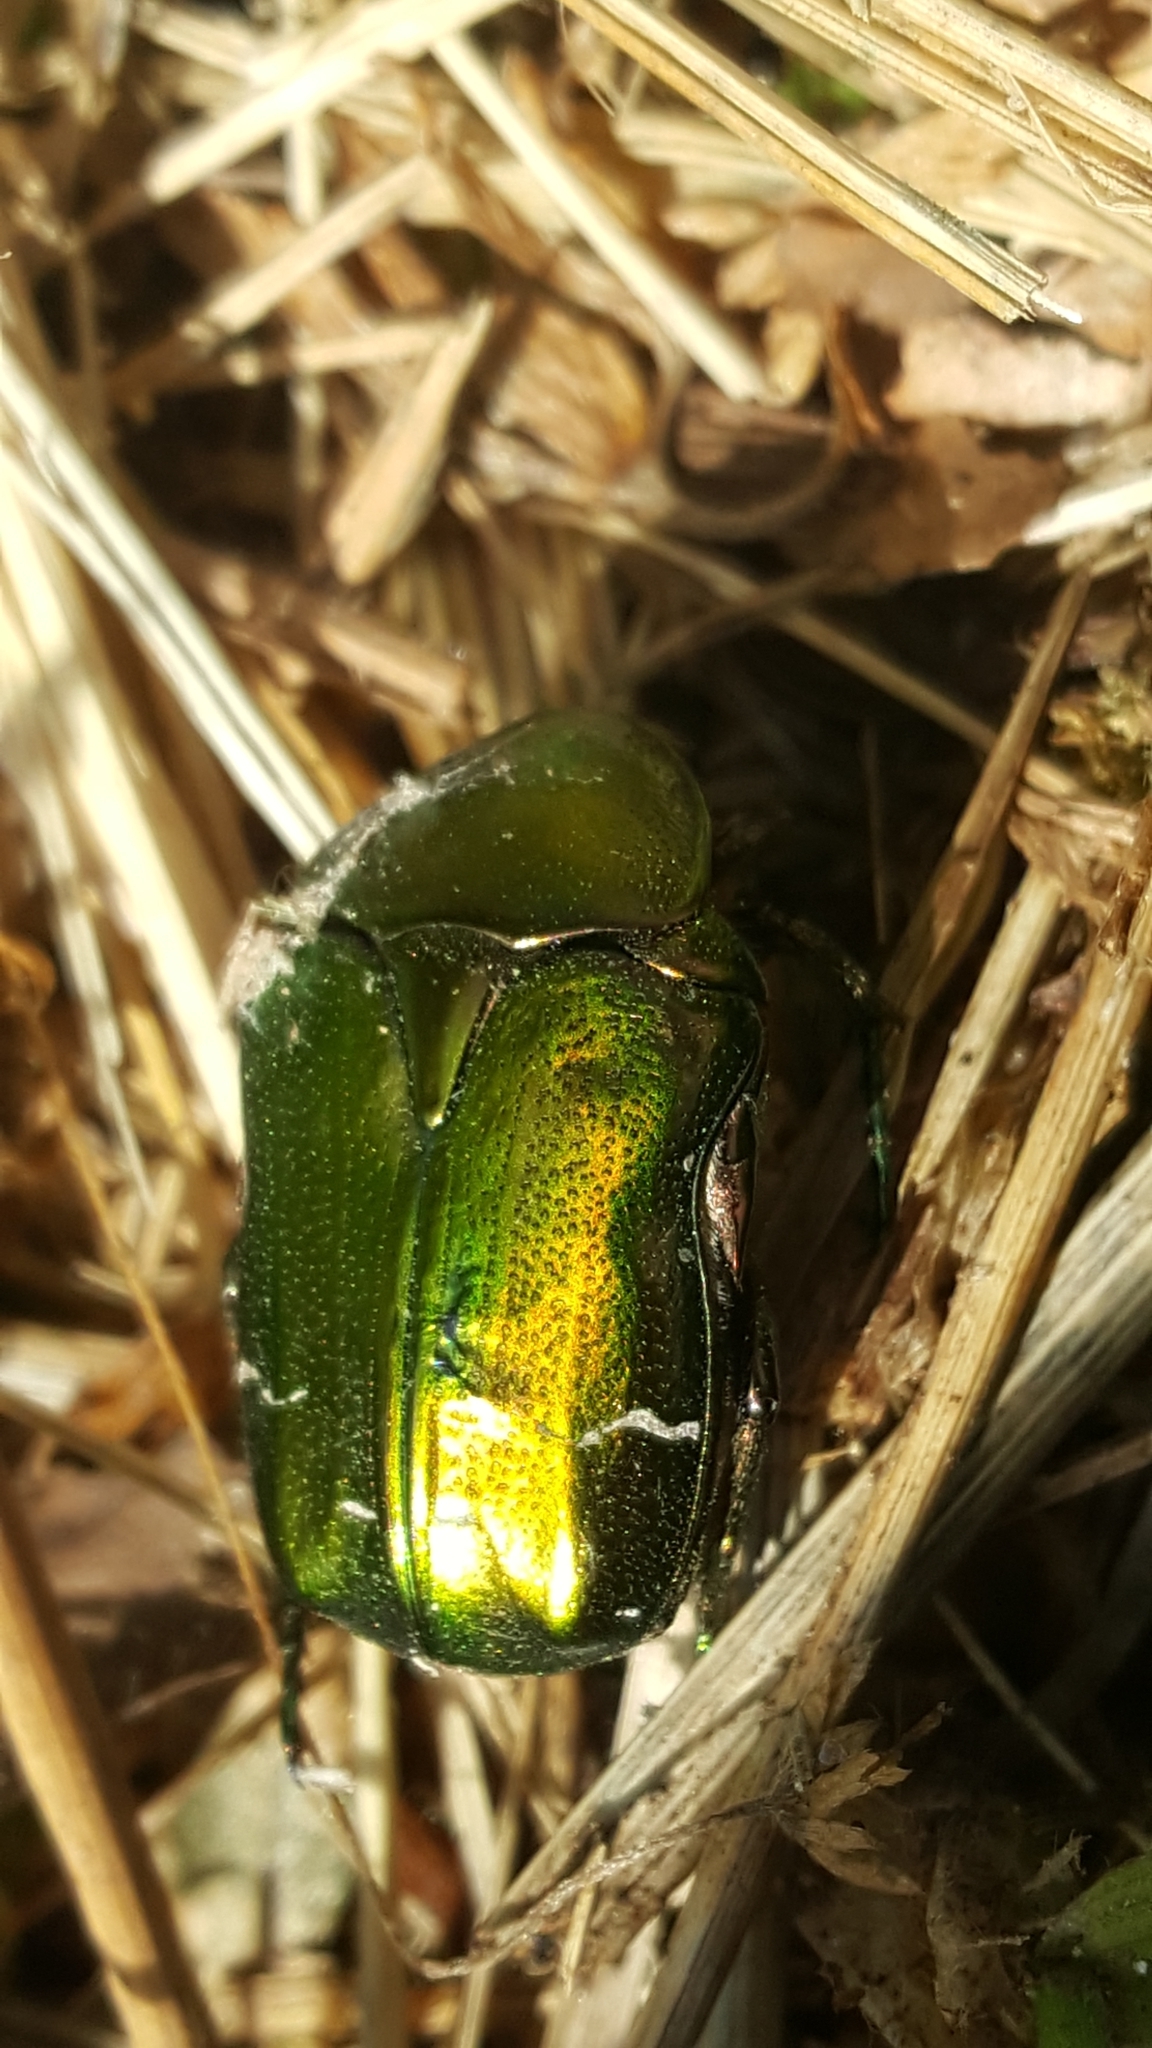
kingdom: Animalia
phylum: Arthropoda
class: Insecta
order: Coleoptera
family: Scarabaeidae
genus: Cetonia
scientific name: Cetonia aurata
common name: Rose chafer
